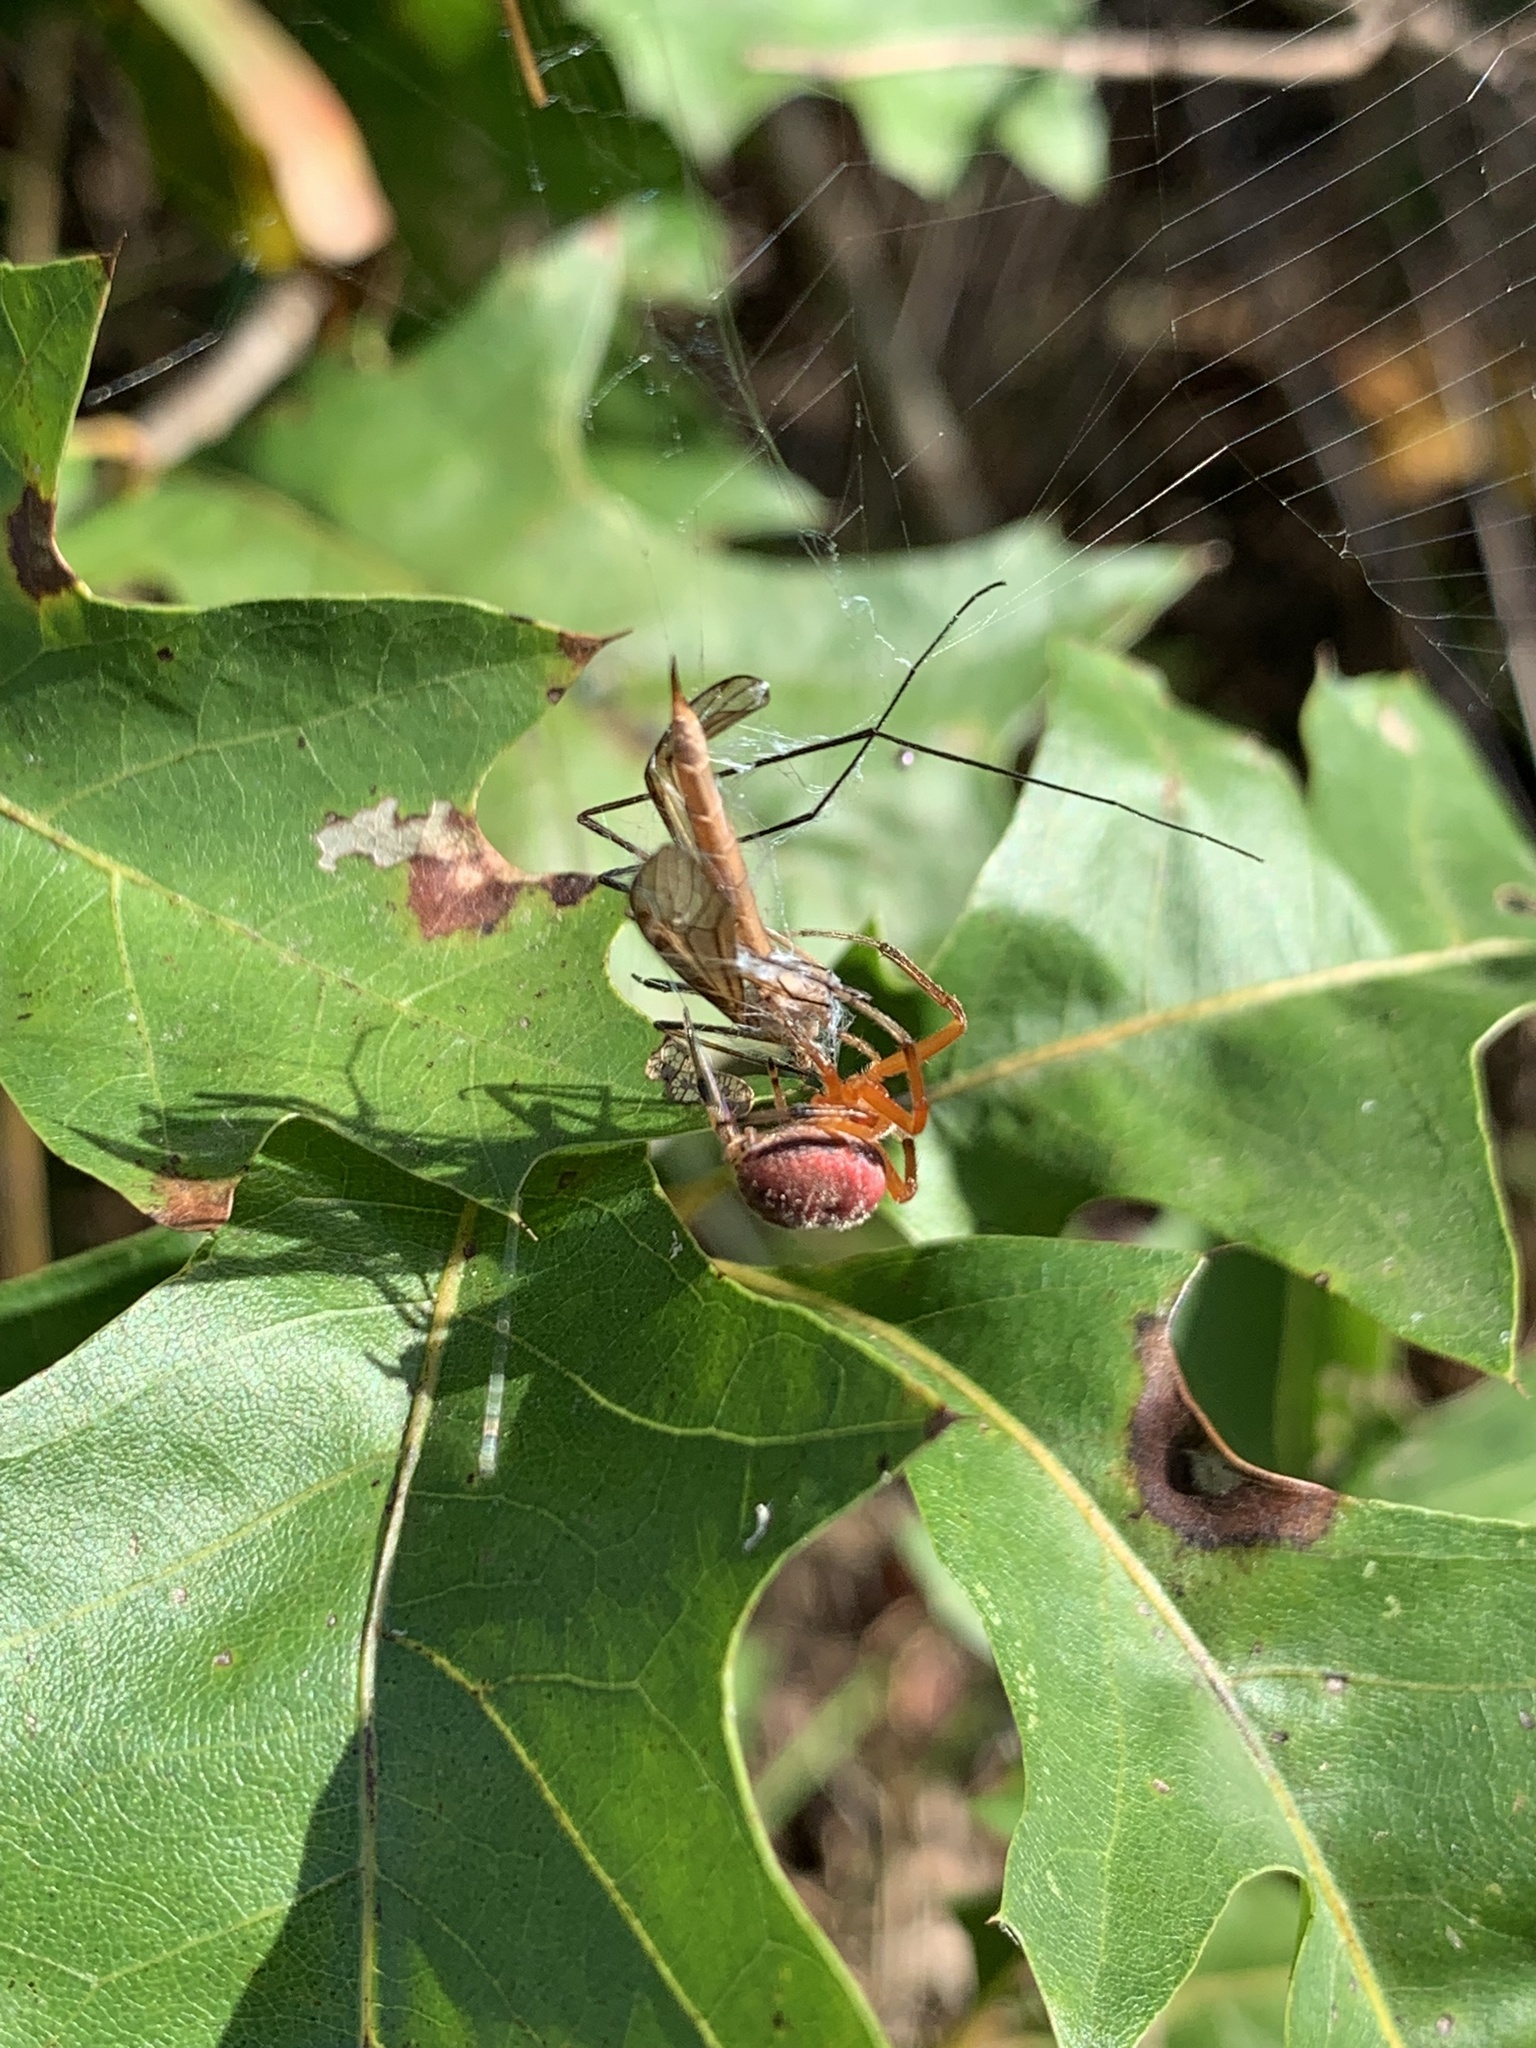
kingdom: Animalia
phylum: Arthropoda
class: Arachnida
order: Araneae
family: Araneidae
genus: Araneus
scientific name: Araneus thaddeus
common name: Lattice orbweaver
